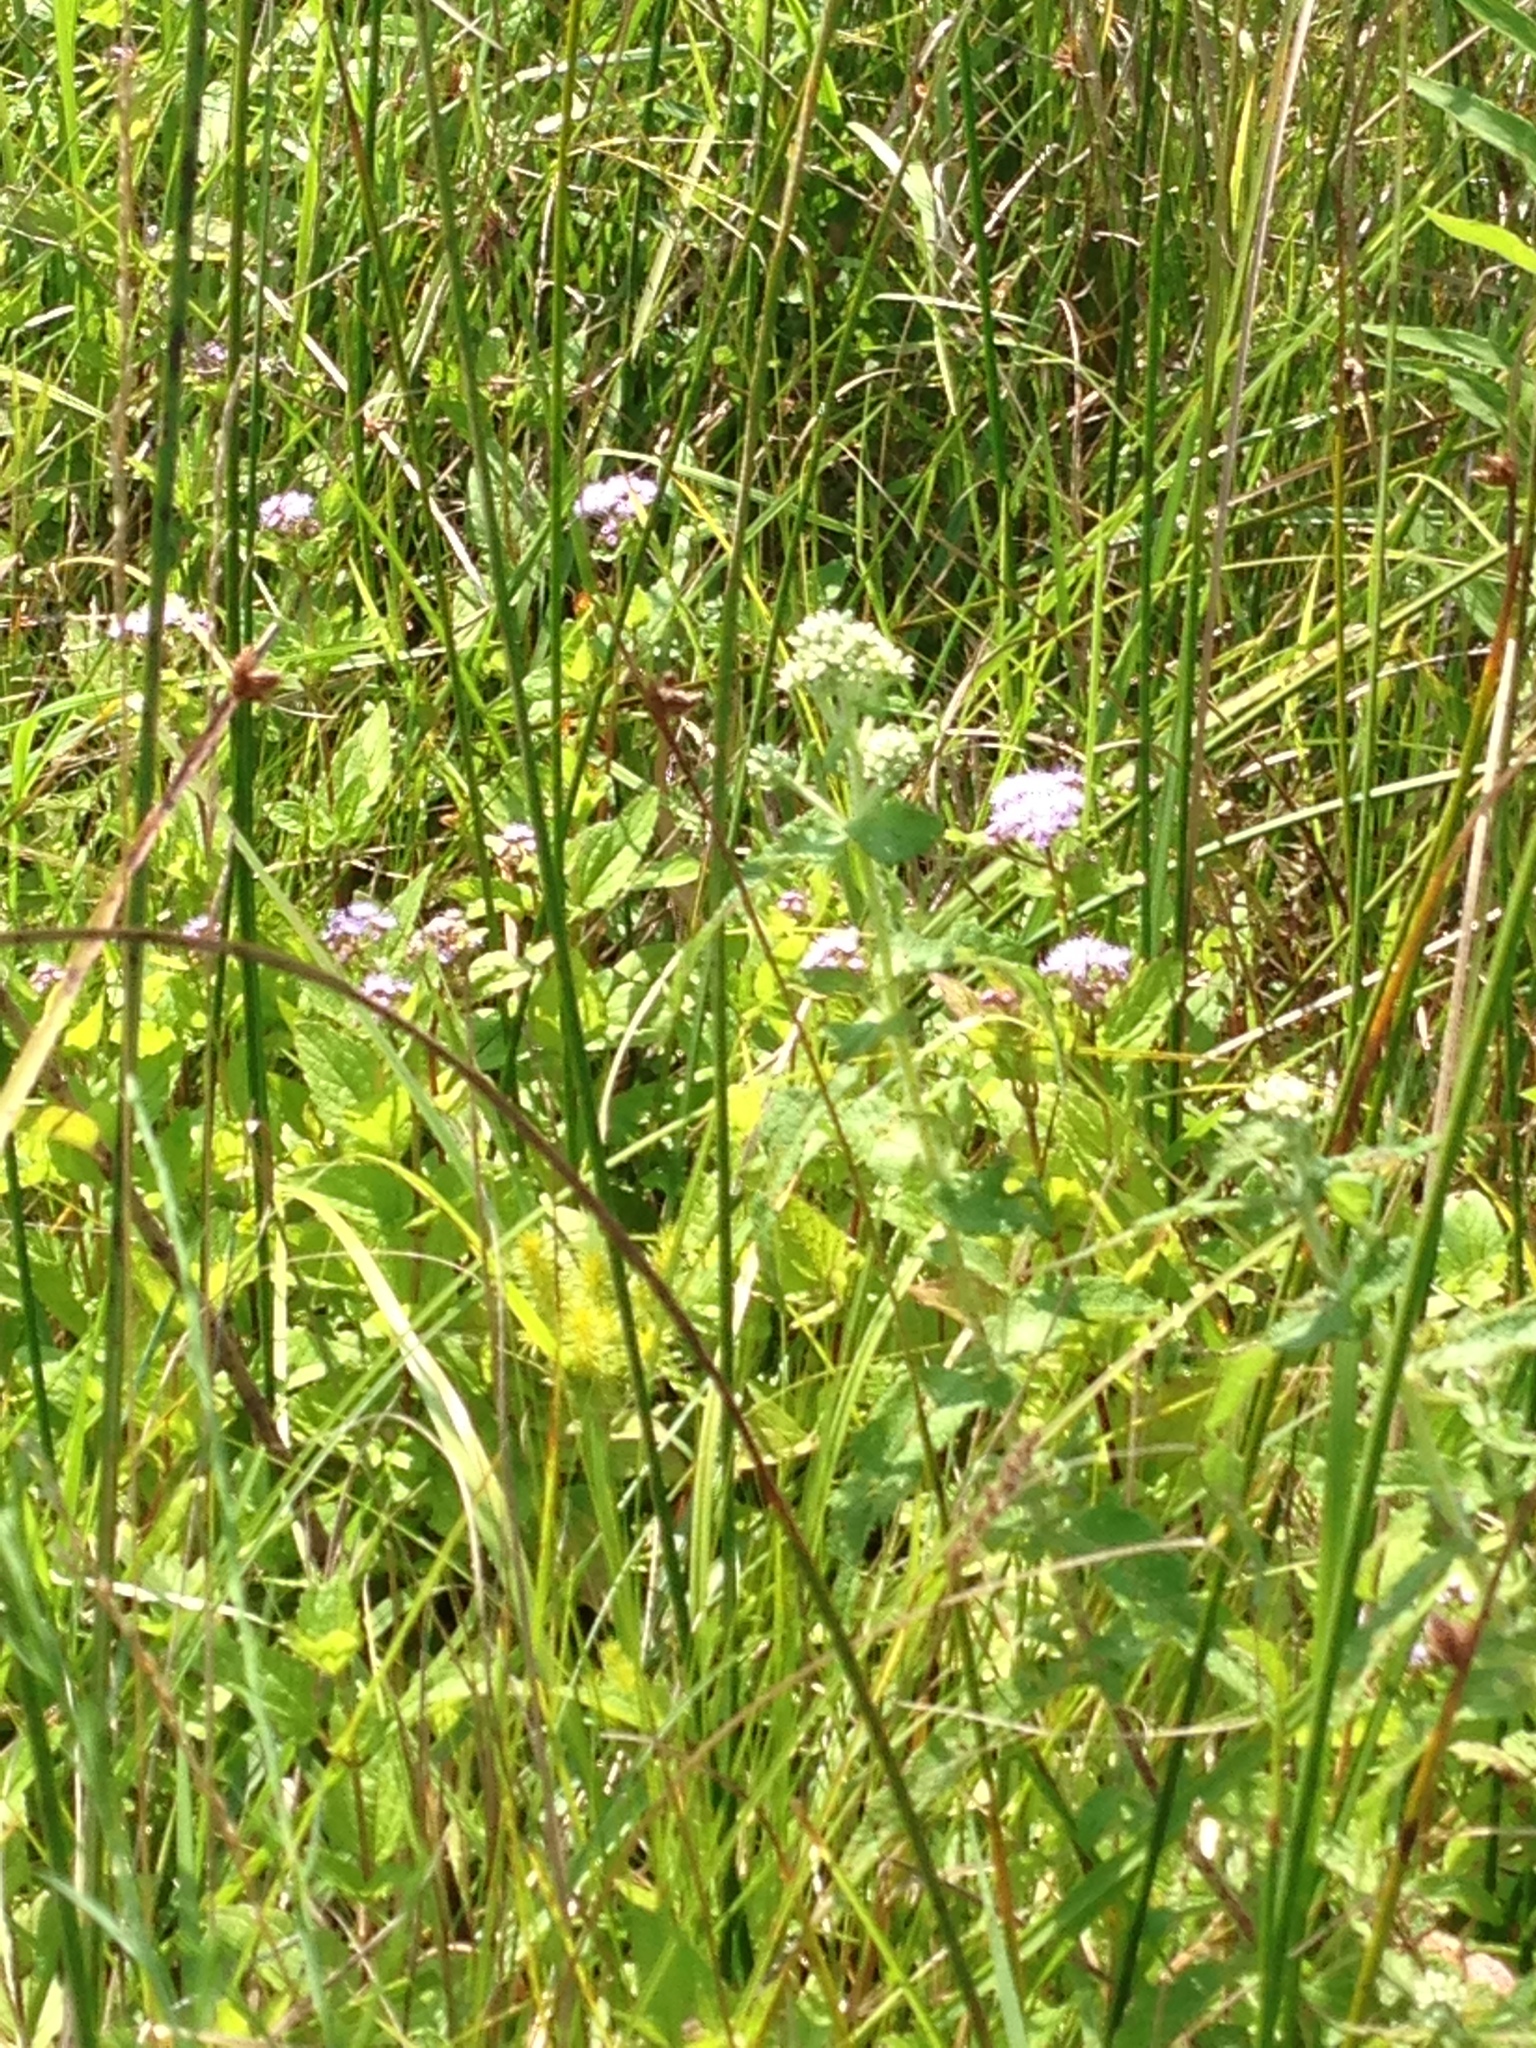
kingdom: Plantae
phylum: Tracheophyta
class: Magnoliopsida
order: Asterales
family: Asteraceae
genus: Eupatorium
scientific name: Eupatorium perfoliatum
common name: Boneset
